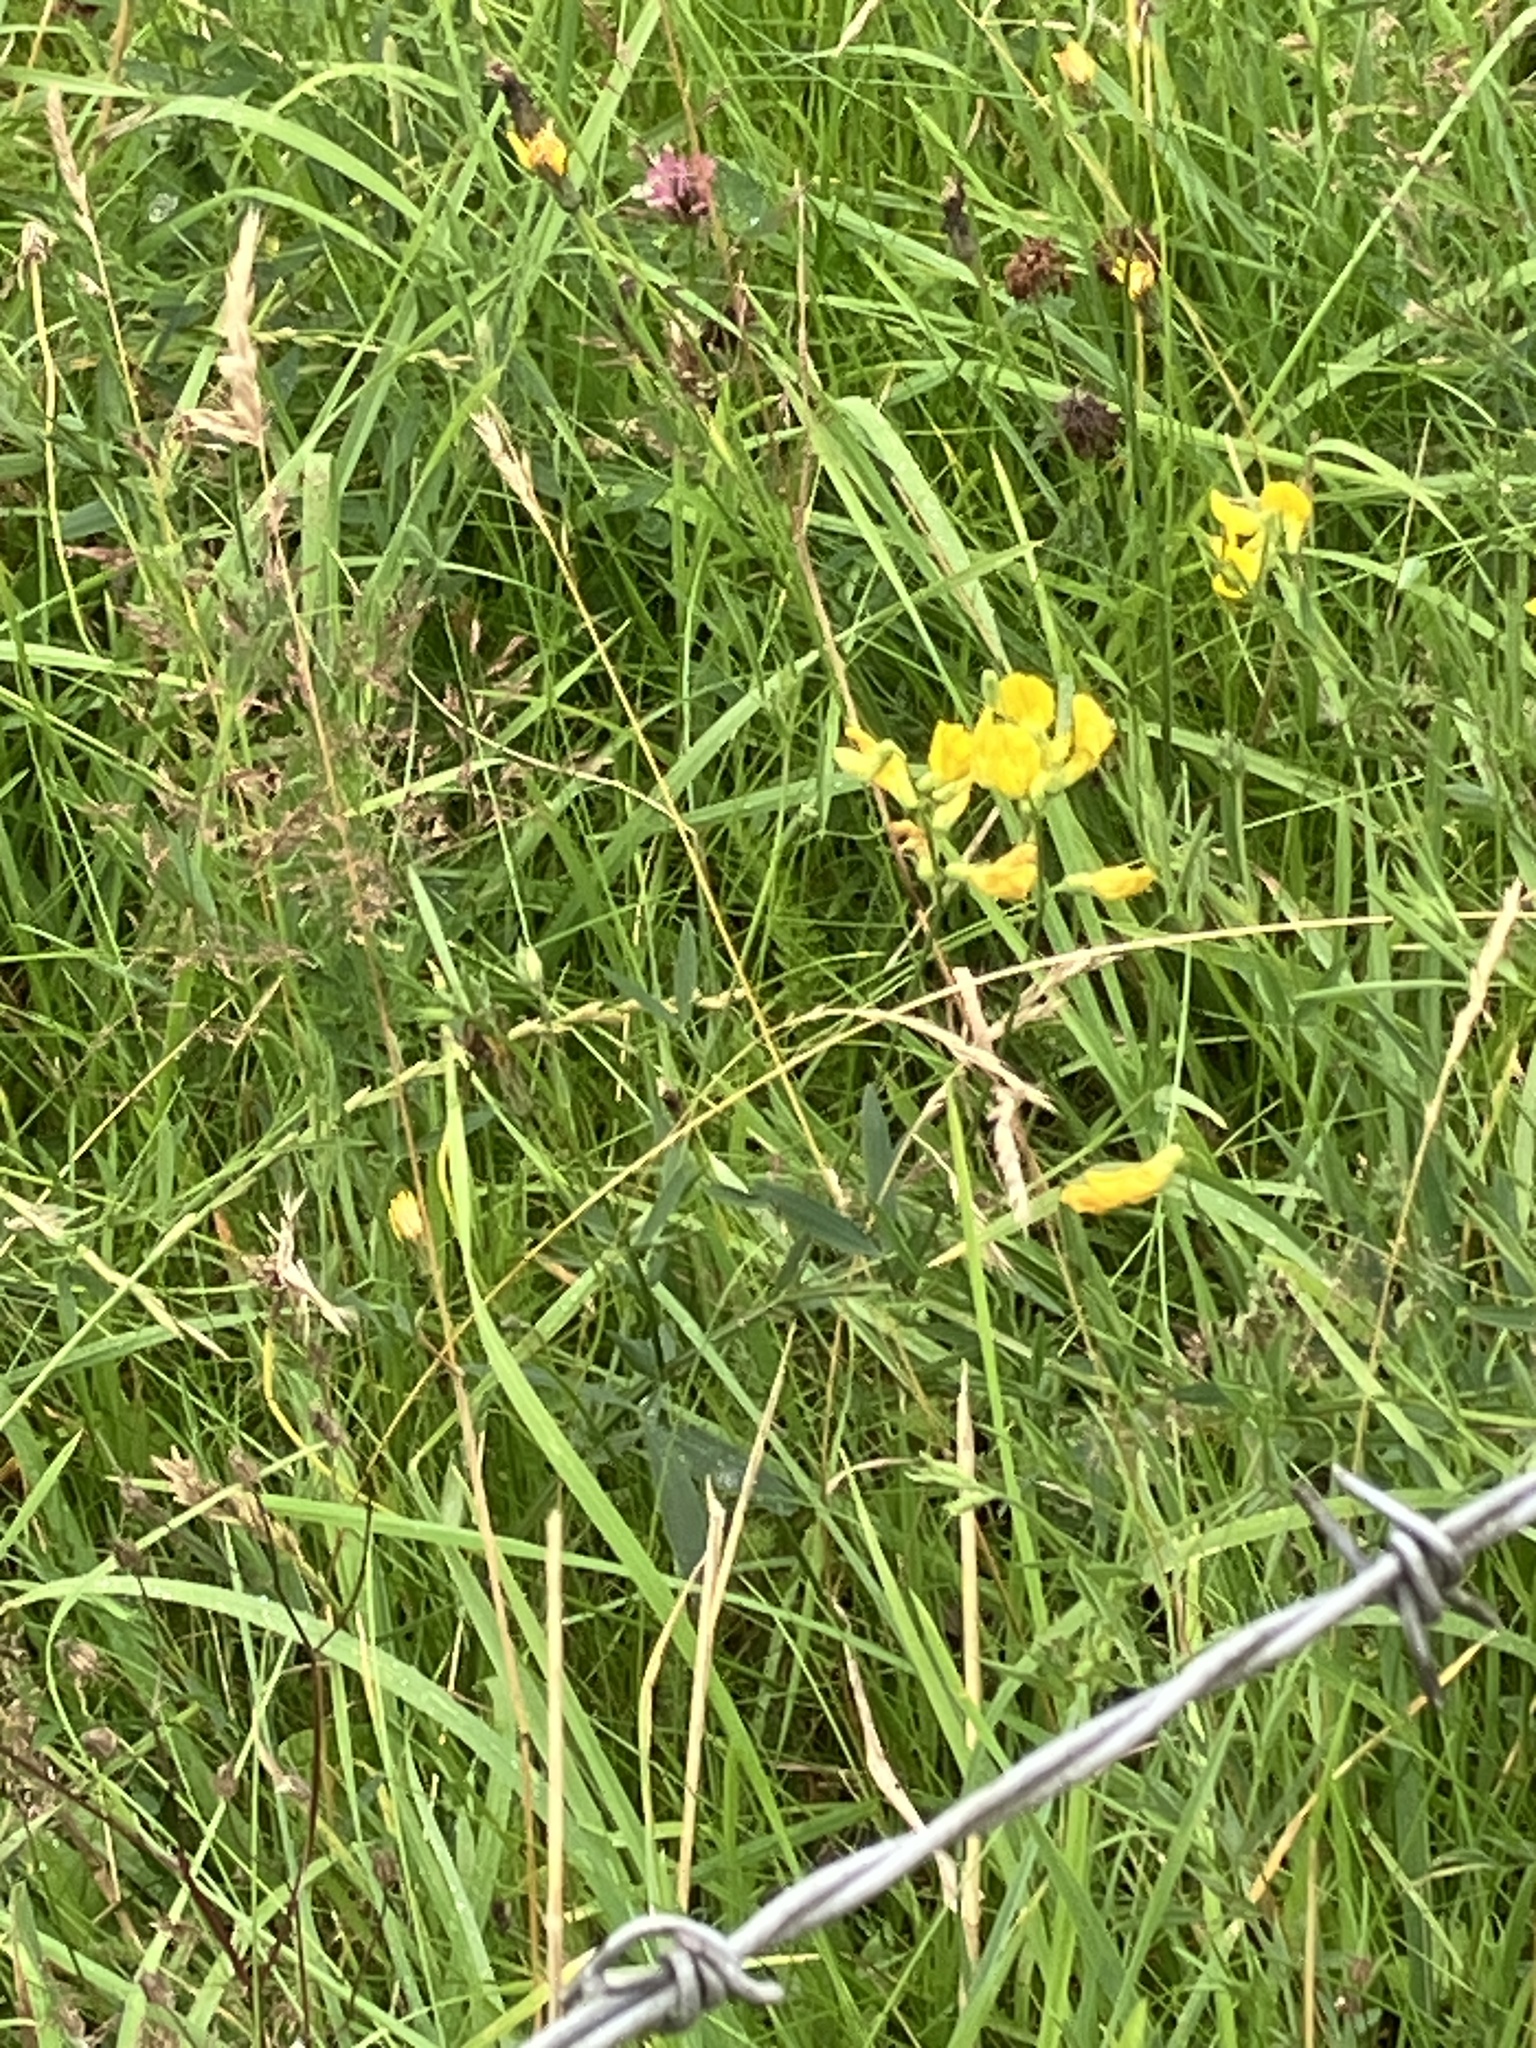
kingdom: Plantae
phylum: Tracheophyta
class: Magnoliopsida
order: Fabales
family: Fabaceae
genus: Lathyrus
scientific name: Lathyrus pratensis
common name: Meadow vetchling
